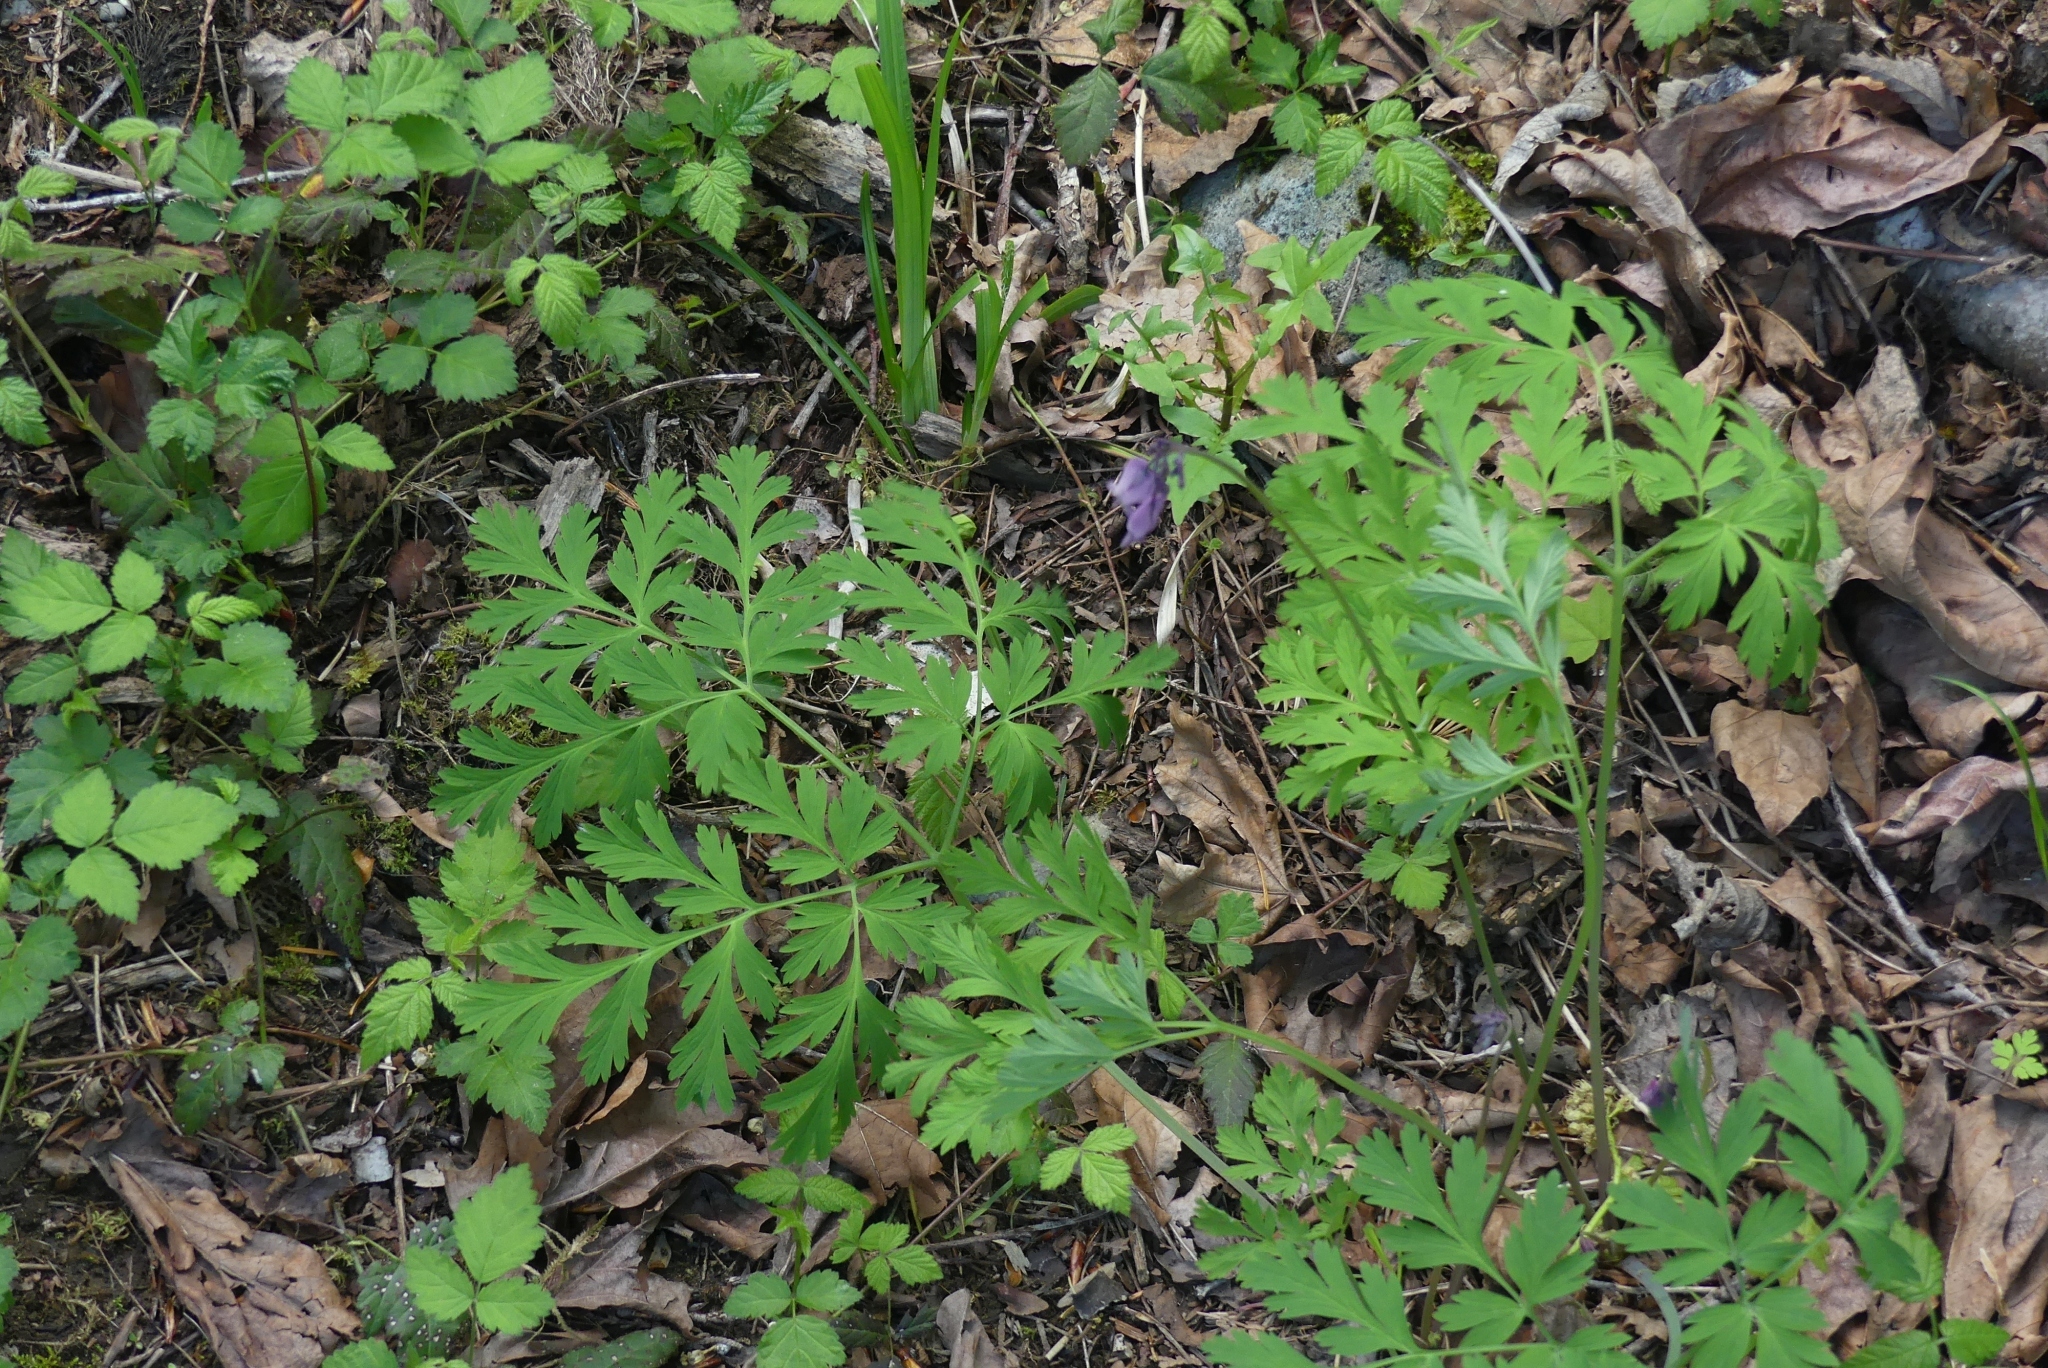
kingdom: Plantae
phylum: Tracheophyta
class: Magnoliopsida
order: Ranunculales
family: Papaveraceae
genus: Dicentra
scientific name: Dicentra formosa
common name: Bleeding-heart
